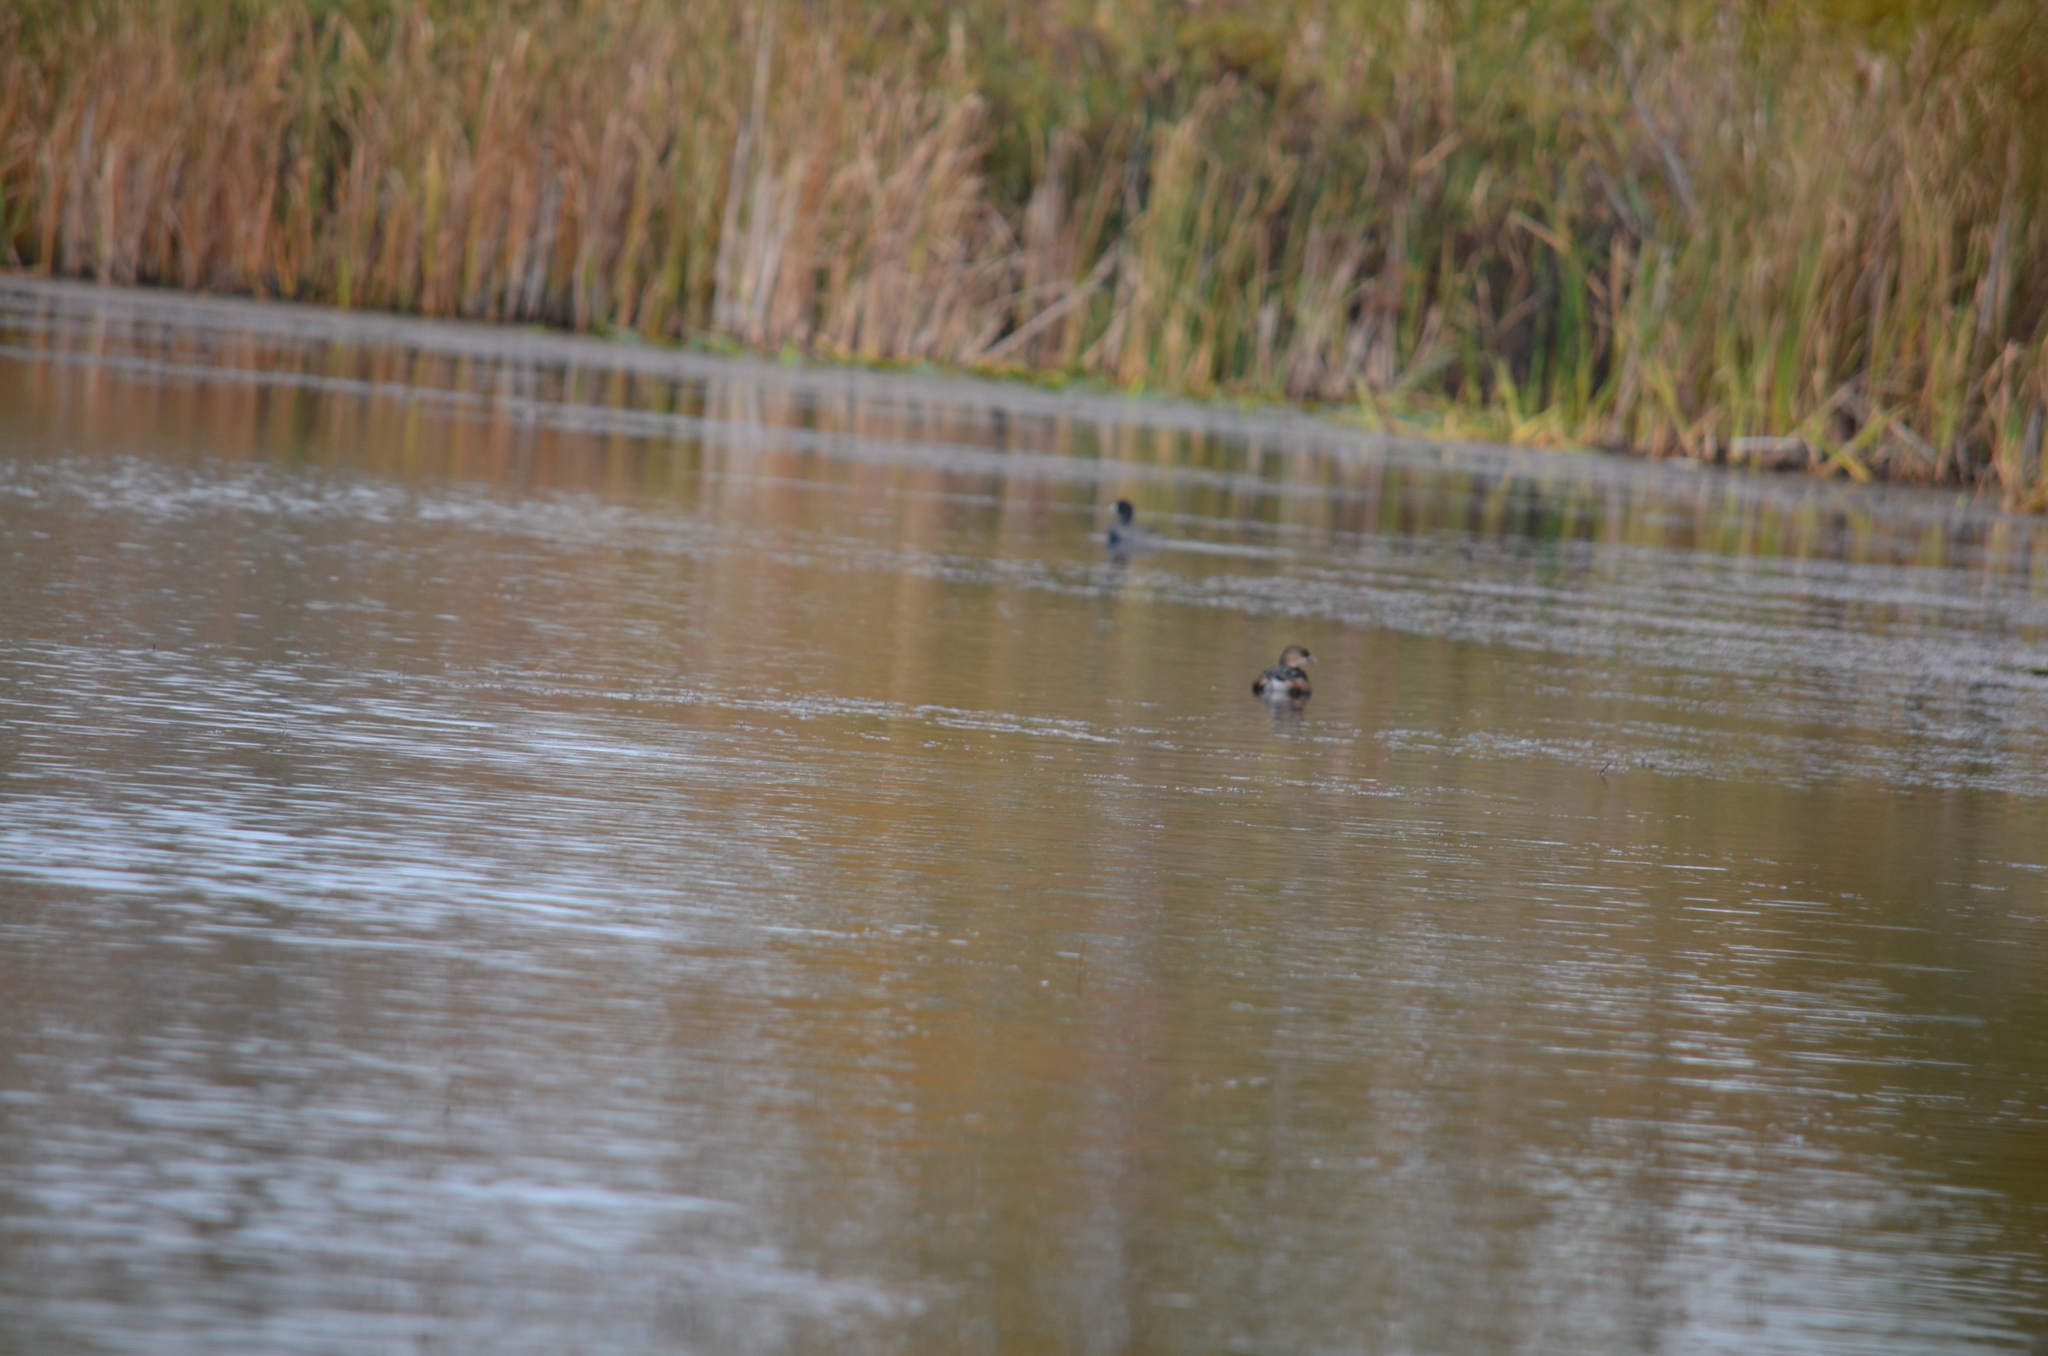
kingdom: Animalia
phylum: Chordata
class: Aves
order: Podicipediformes
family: Podicipedidae
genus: Podilymbus
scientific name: Podilymbus podiceps
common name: Pied-billed grebe
